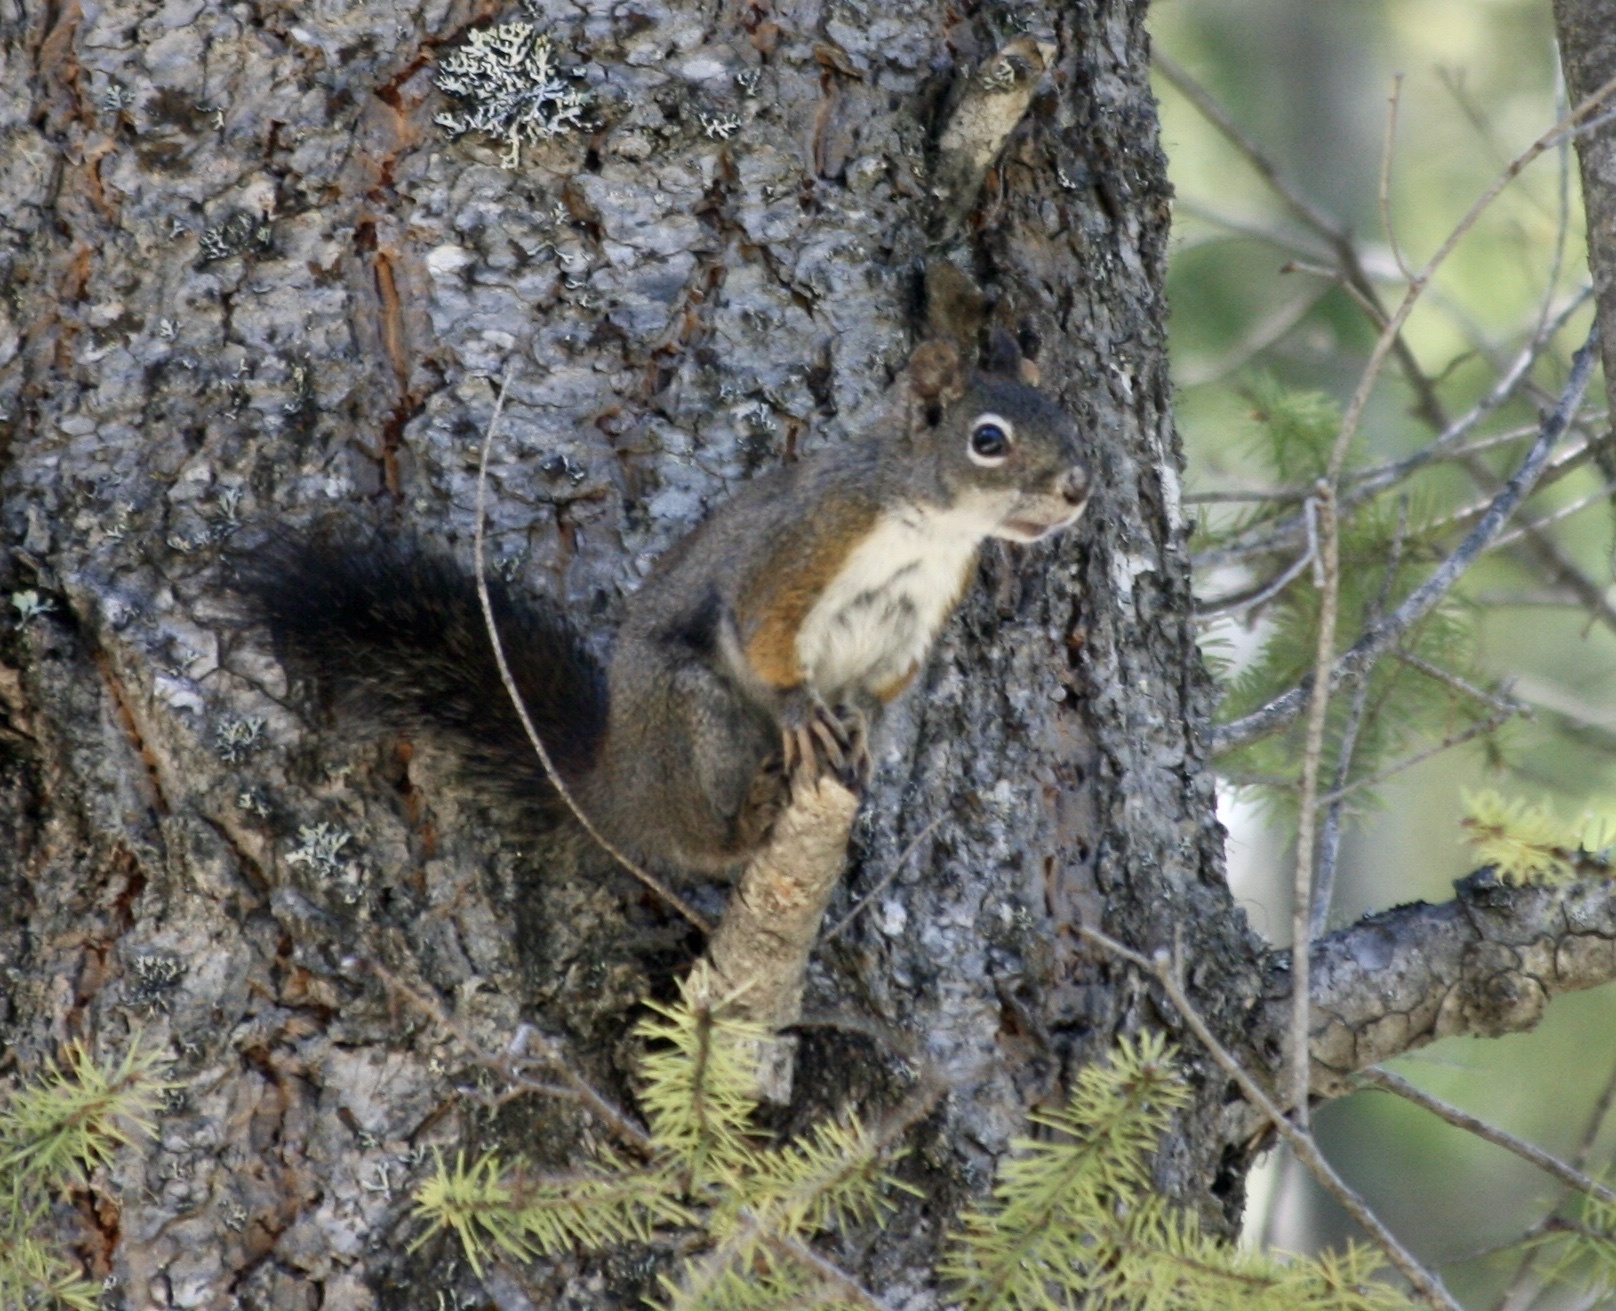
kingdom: Animalia
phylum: Chordata
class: Mammalia
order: Rodentia
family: Sciuridae
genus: Tamiasciurus
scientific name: Tamiasciurus hudsonicus
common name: Red squirrel
